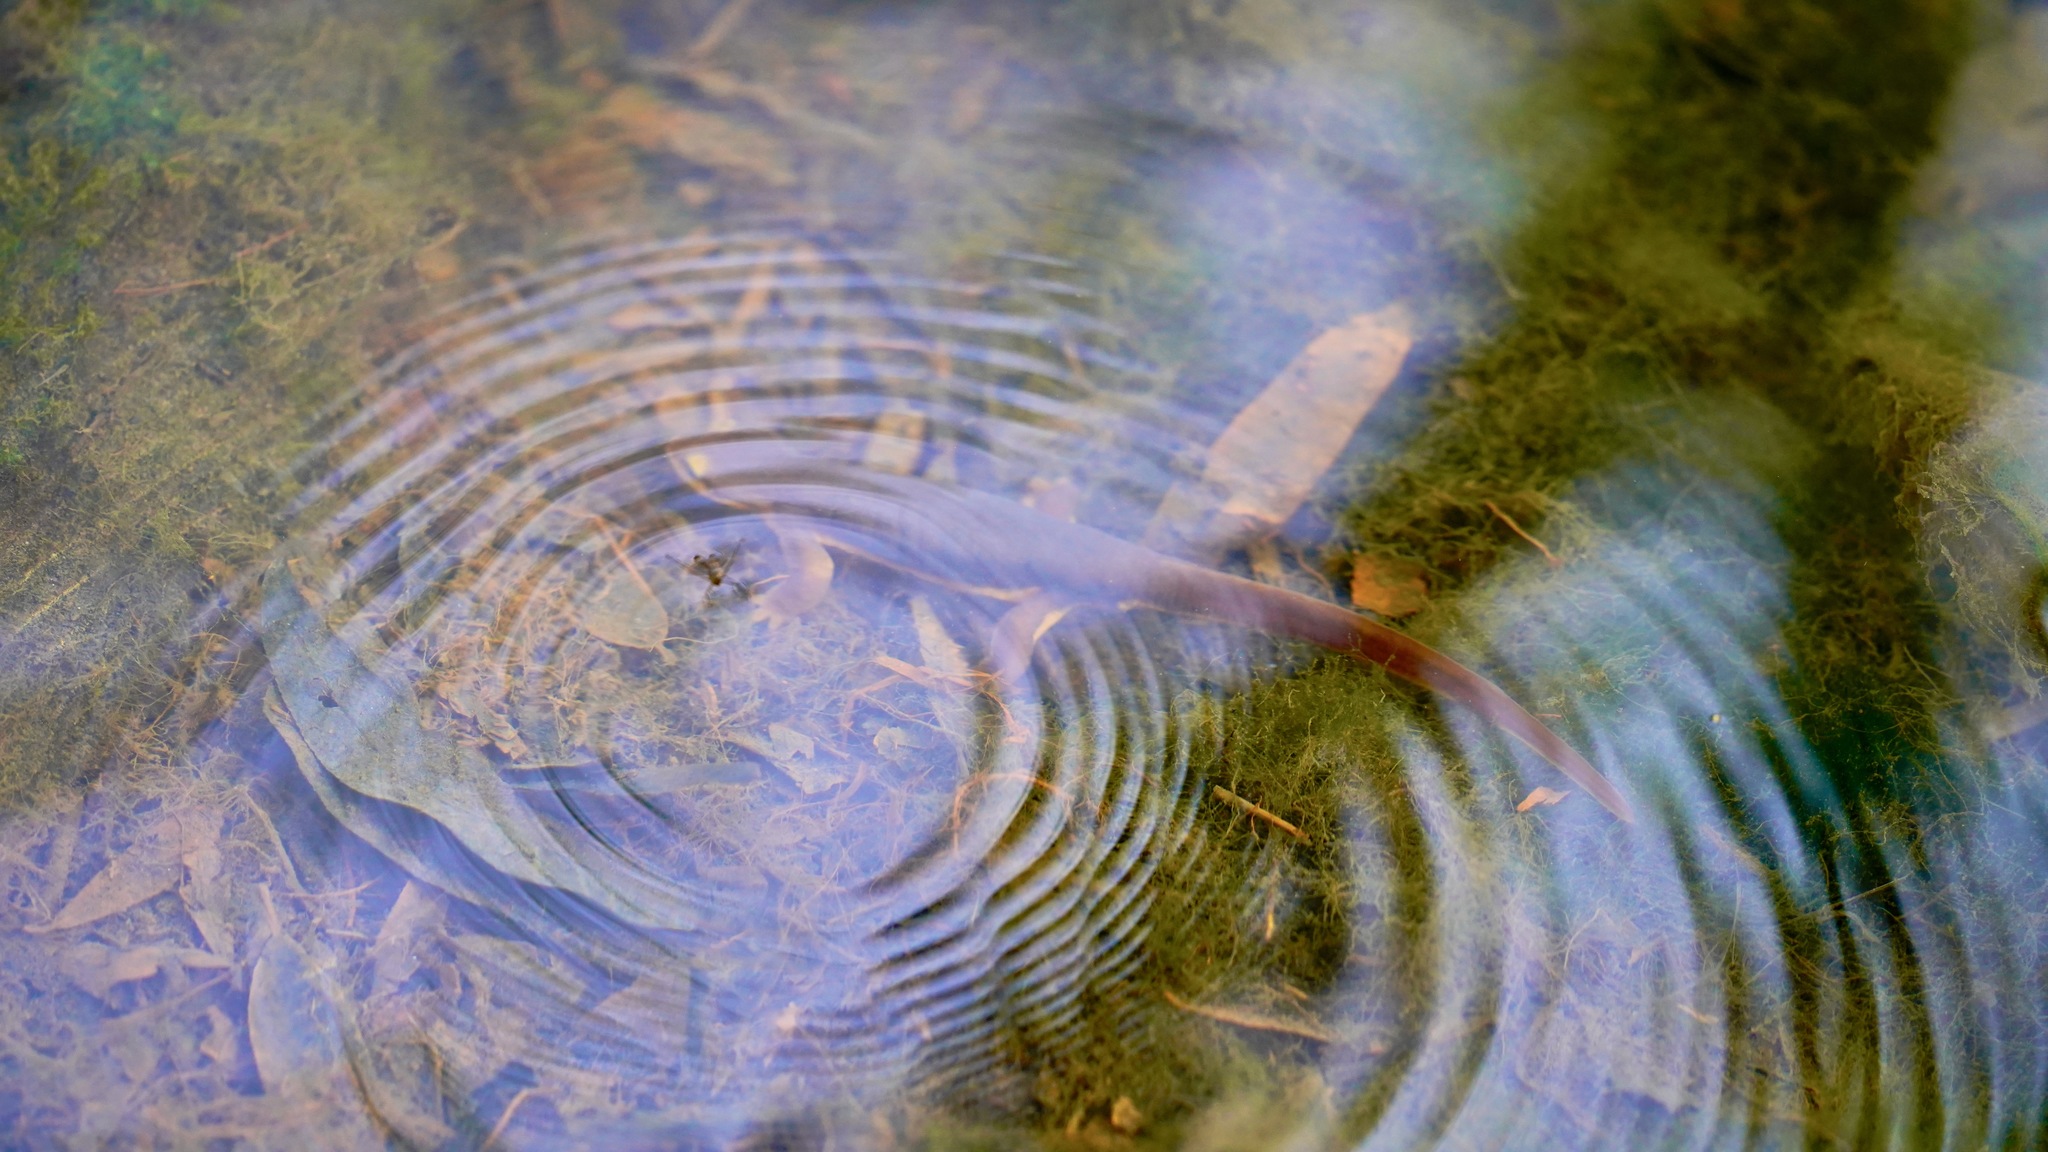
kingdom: Animalia
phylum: Chordata
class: Amphibia
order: Caudata
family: Salamandridae
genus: Taricha
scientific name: Taricha torosa
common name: California newt
